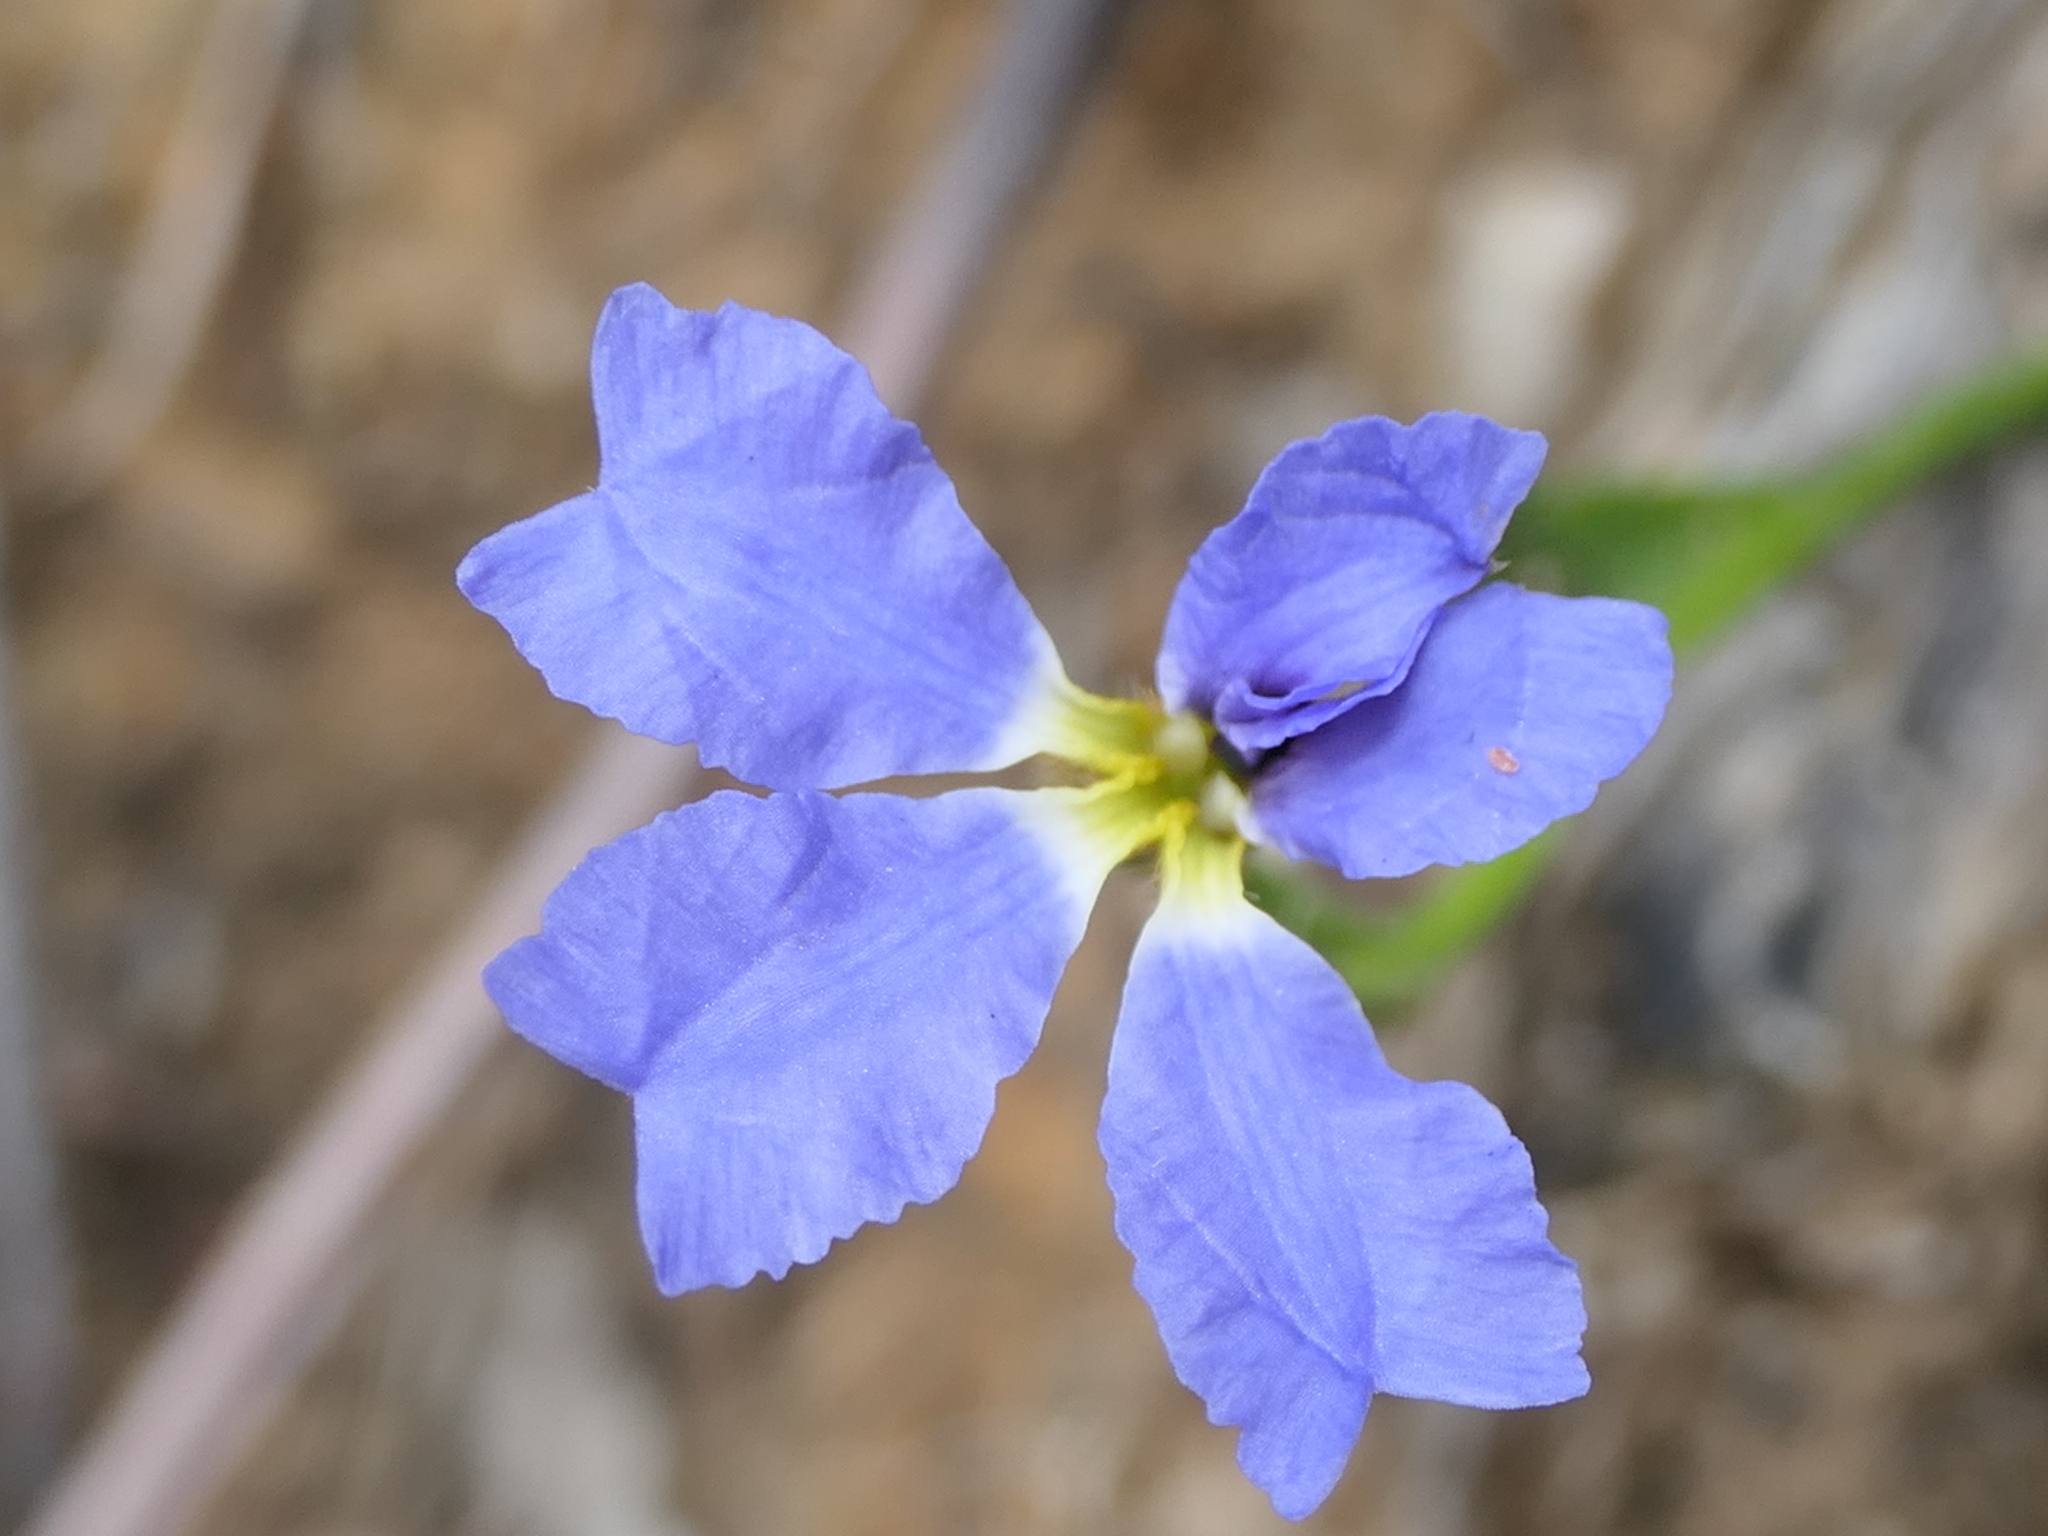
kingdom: Plantae
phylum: Tracheophyta
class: Magnoliopsida
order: Asterales
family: Goodeniaceae
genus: Dampiera
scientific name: Dampiera stricta
